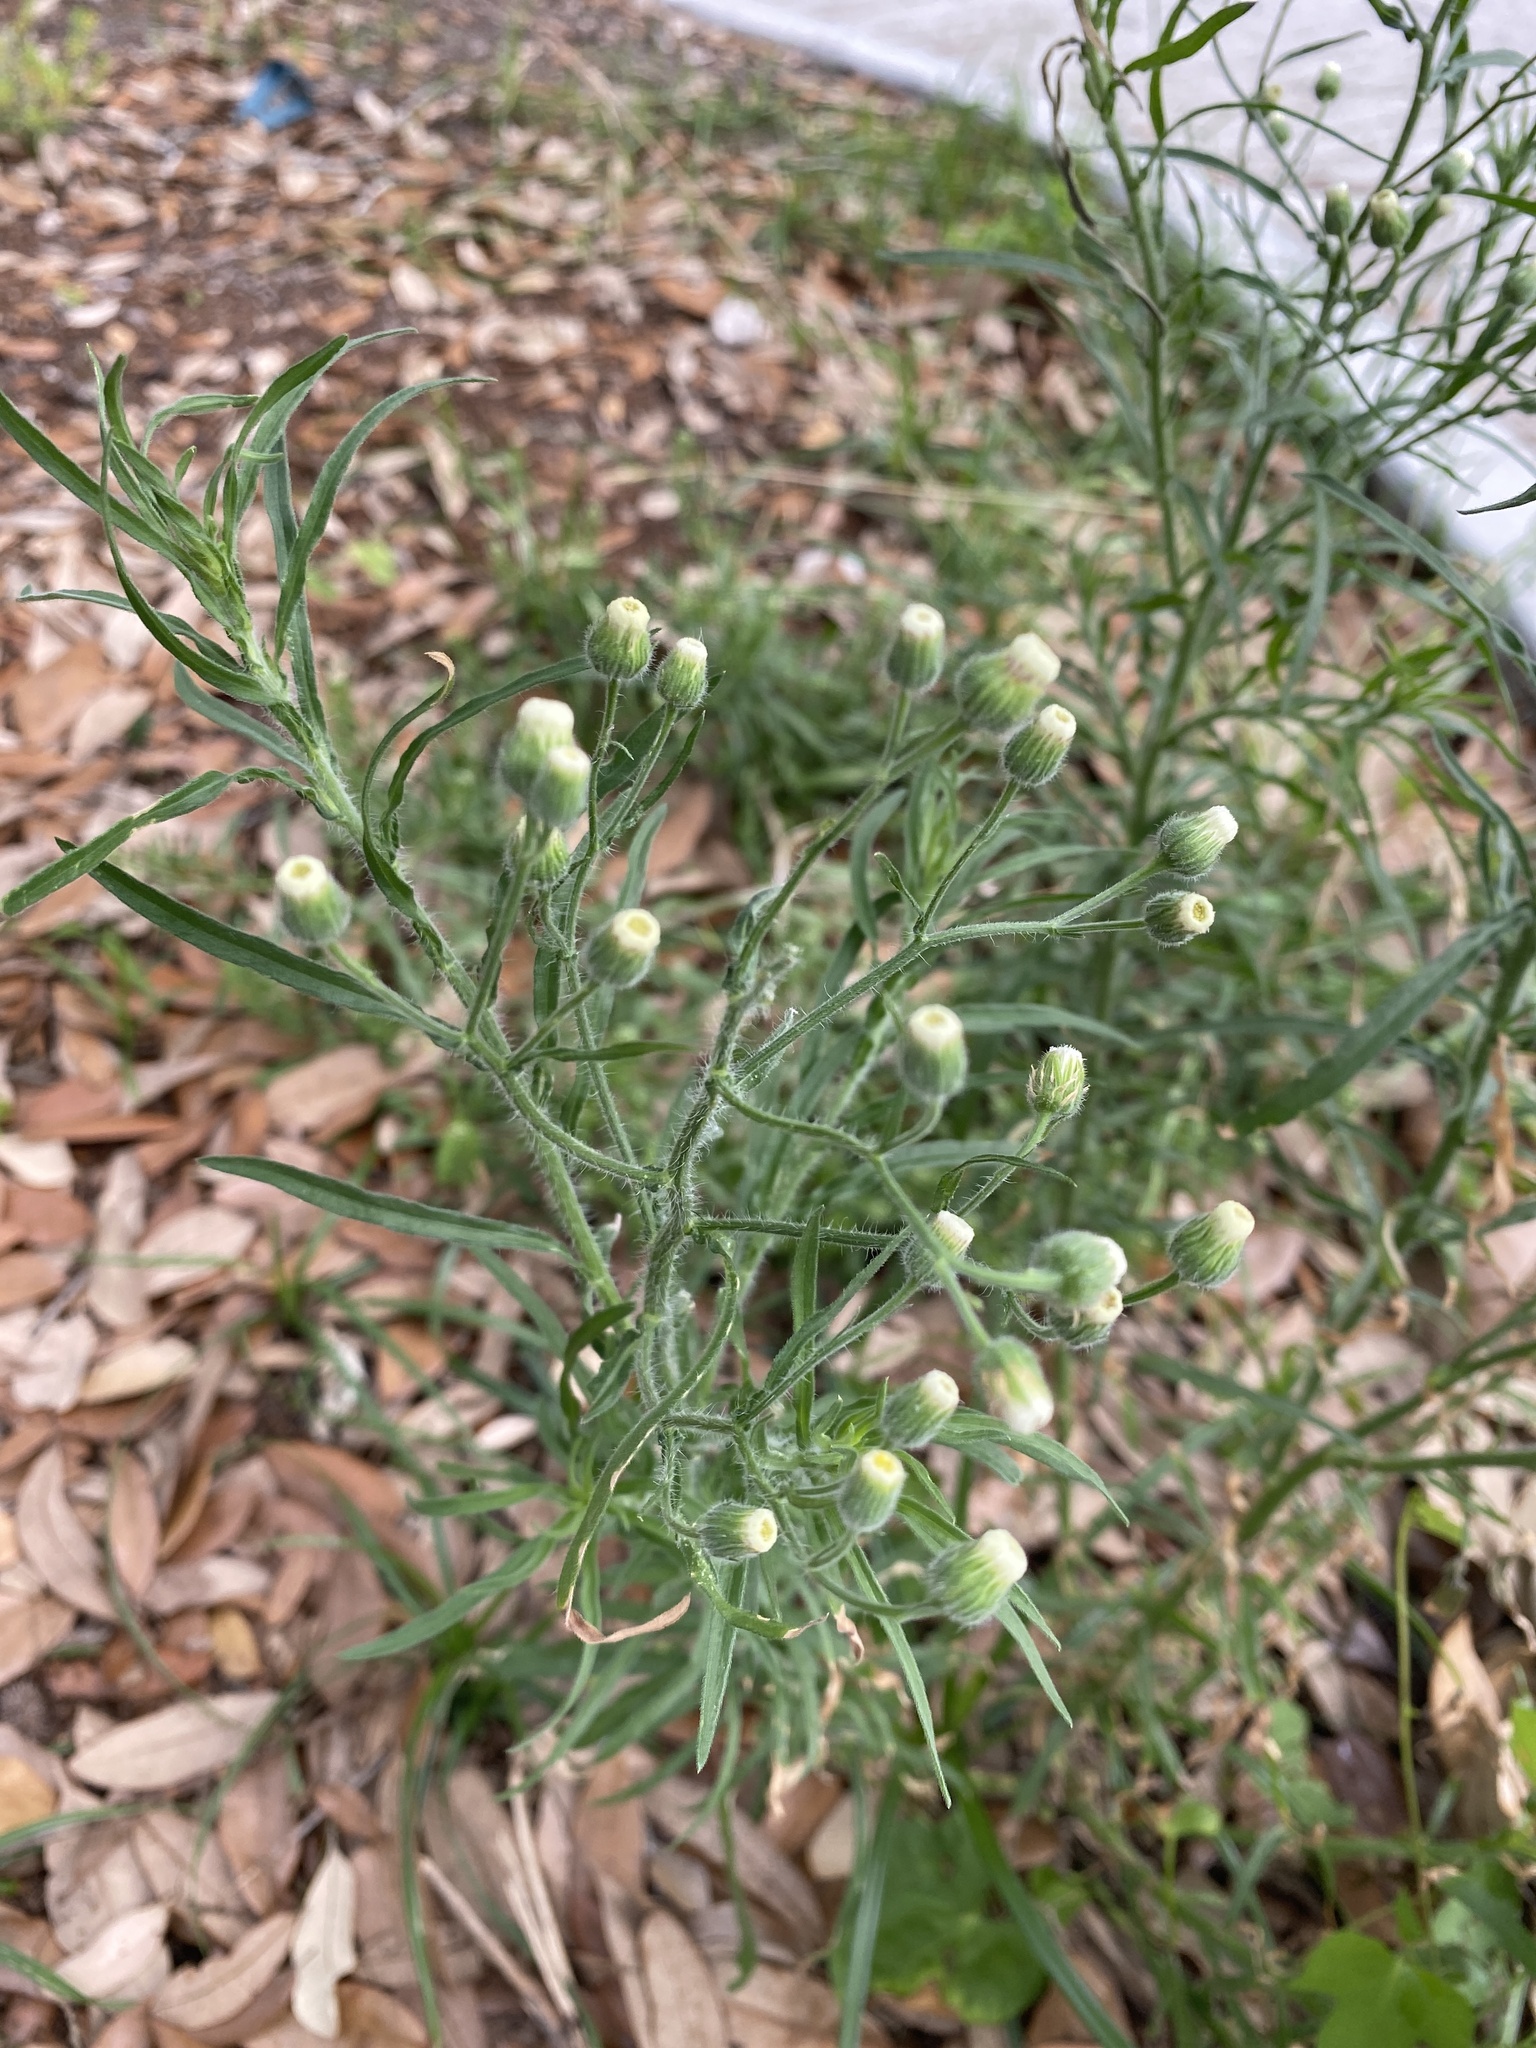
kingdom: Plantae
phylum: Tracheophyta
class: Magnoliopsida
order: Asterales
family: Asteraceae
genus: Erigeron
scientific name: Erigeron bonariensis
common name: Argentine fleabane
